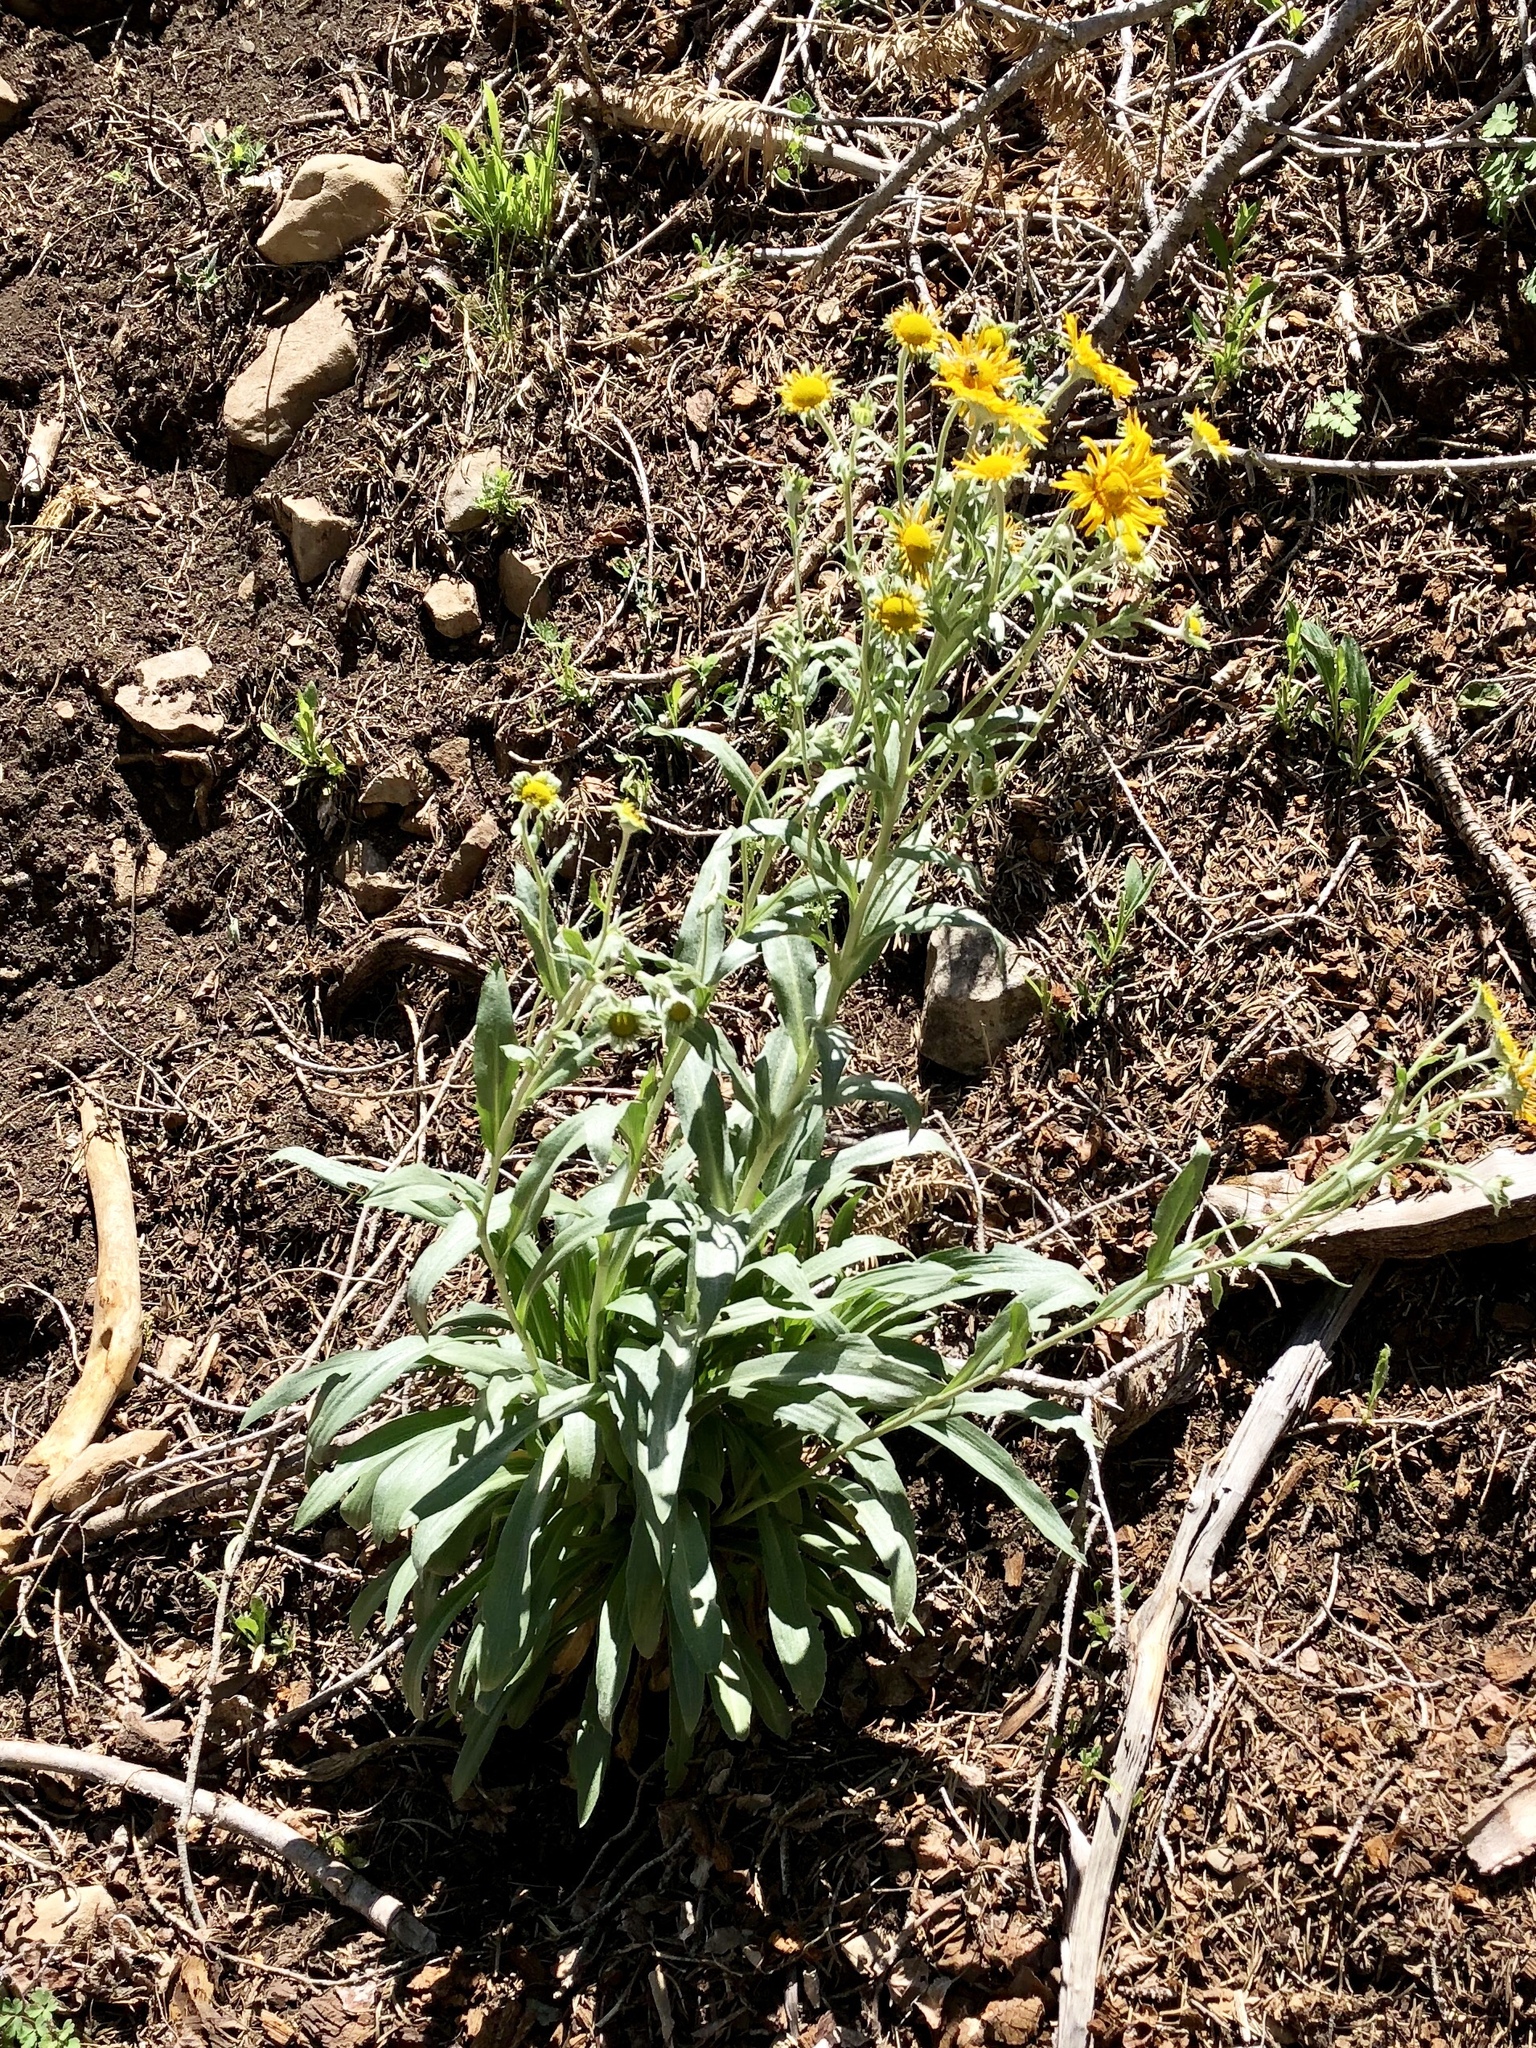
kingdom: Plantae
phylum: Tracheophyta
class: Magnoliopsida
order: Asterales
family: Asteraceae
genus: Hymenoxys
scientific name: Hymenoxys hoopesii
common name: Orange-sneezeweed
